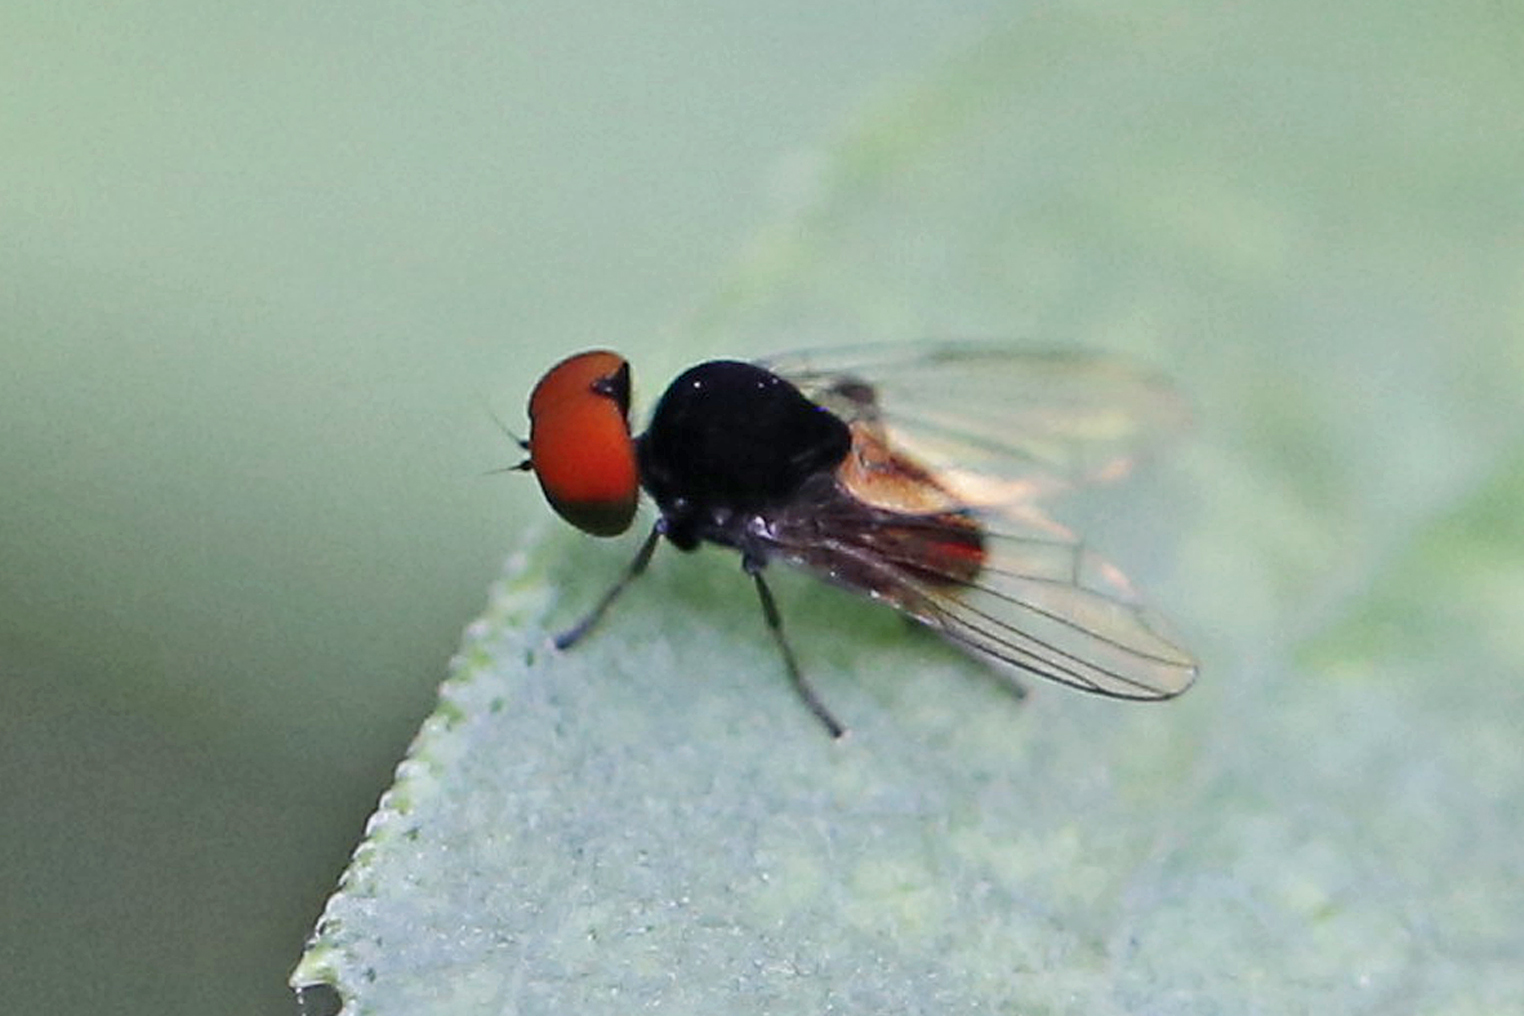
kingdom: Animalia
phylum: Arthropoda
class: Insecta
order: Diptera
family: Platypezidae
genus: Paraplatypeza
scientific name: Paraplatypeza velutina
